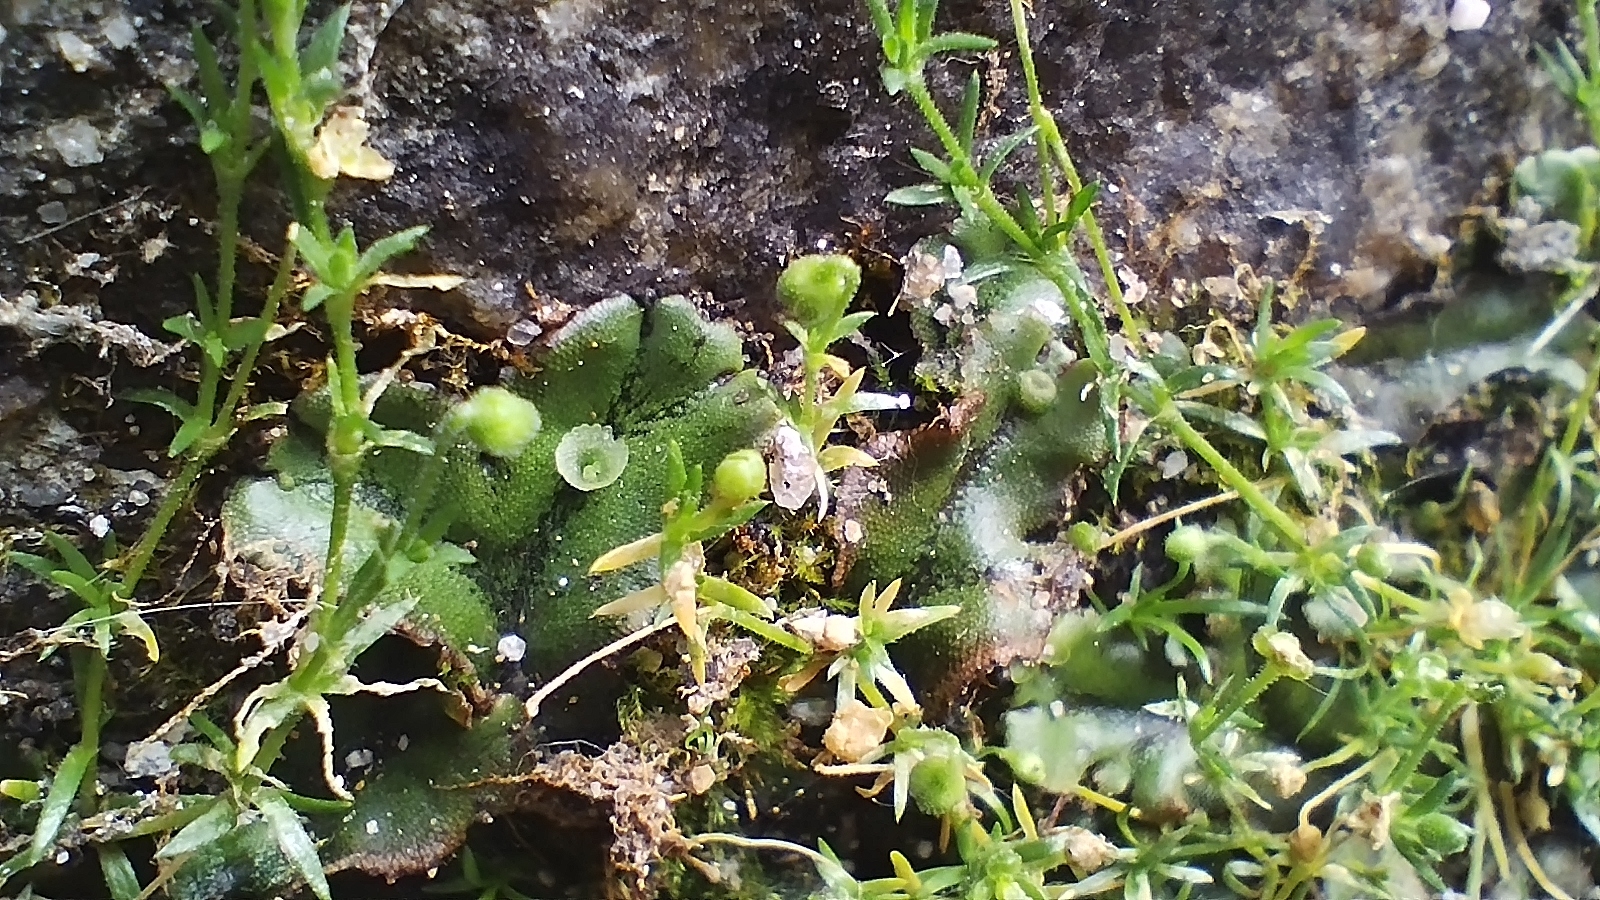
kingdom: Plantae
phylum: Marchantiophyta
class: Marchantiopsida
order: Marchantiales
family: Marchantiaceae
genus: Marchantia
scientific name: Marchantia polymorpha
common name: Common liverwort
